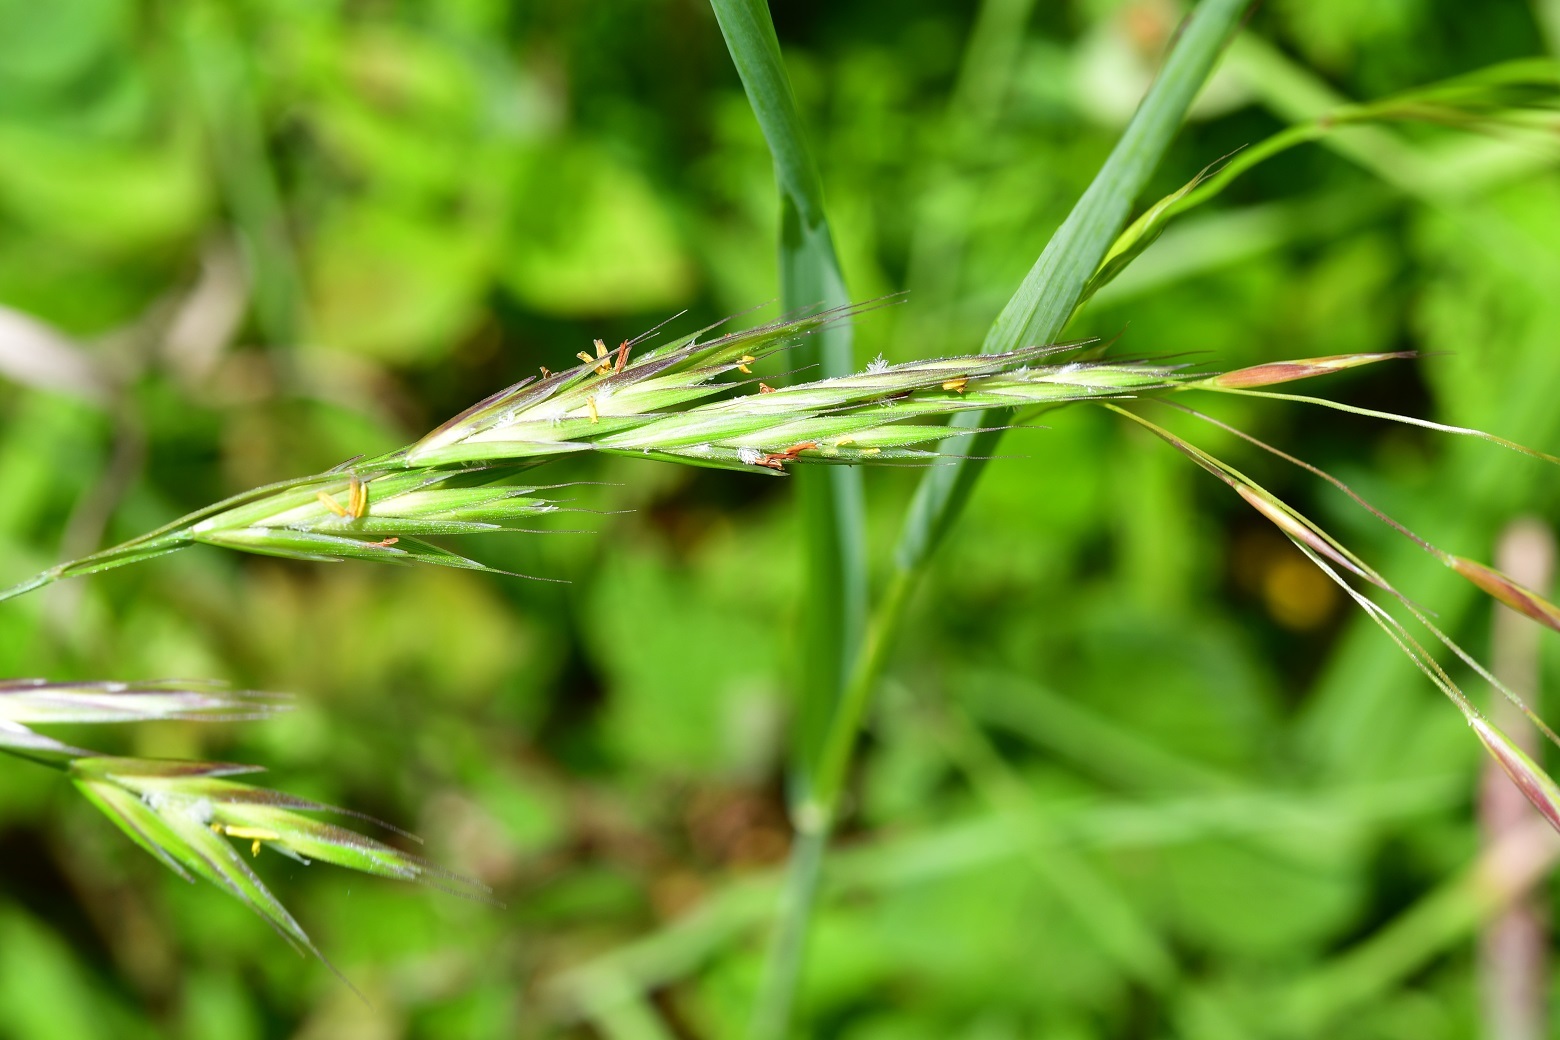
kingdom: Plantae
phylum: Tracheophyta
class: Liliopsida
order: Poales
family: Poaceae
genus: Bromus
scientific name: Bromus anomalus
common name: Nodding brome
